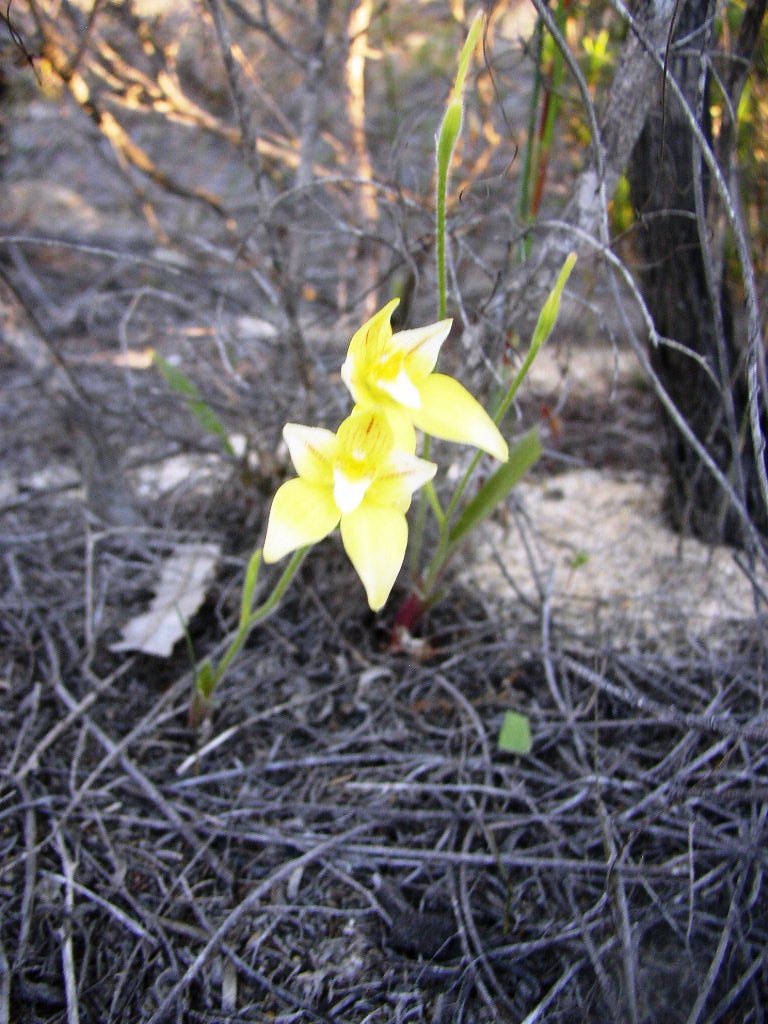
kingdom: Plantae
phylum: Tracheophyta
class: Liliopsida
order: Asparagales
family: Orchidaceae
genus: Caladenia
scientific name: Caladenia flava
